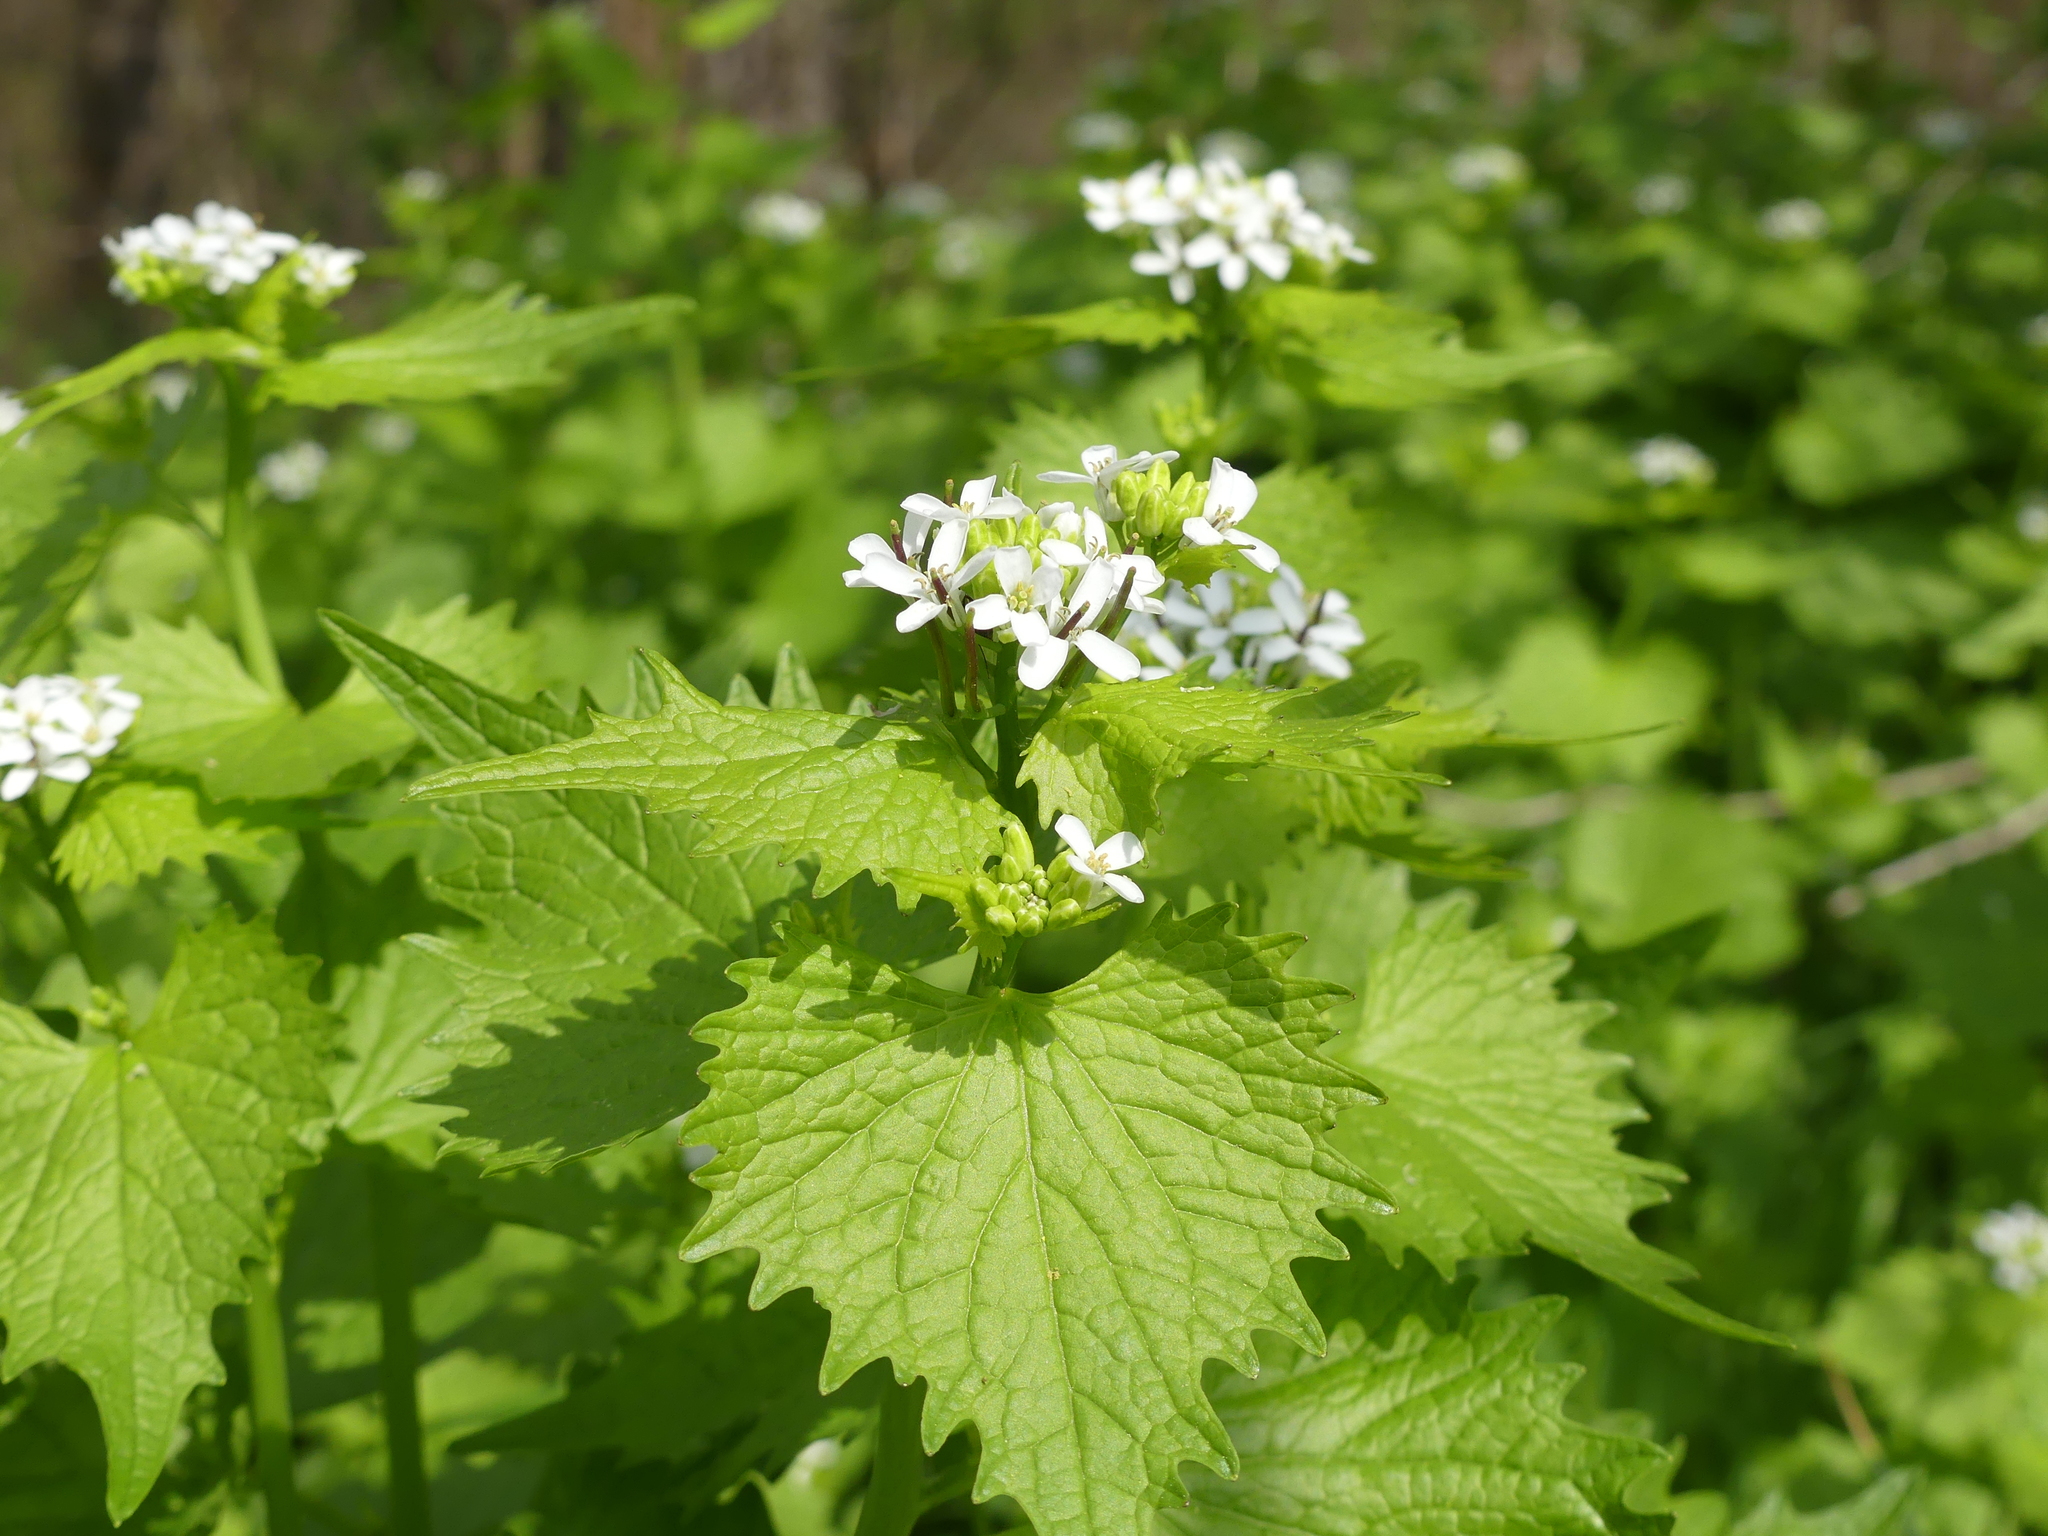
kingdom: Plantae
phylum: Tracheophyta
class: Magnoliopsida
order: Brassicales
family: Brassicaceae
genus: Alliaria
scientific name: Alliaria petiolata
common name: Garlic mustard
